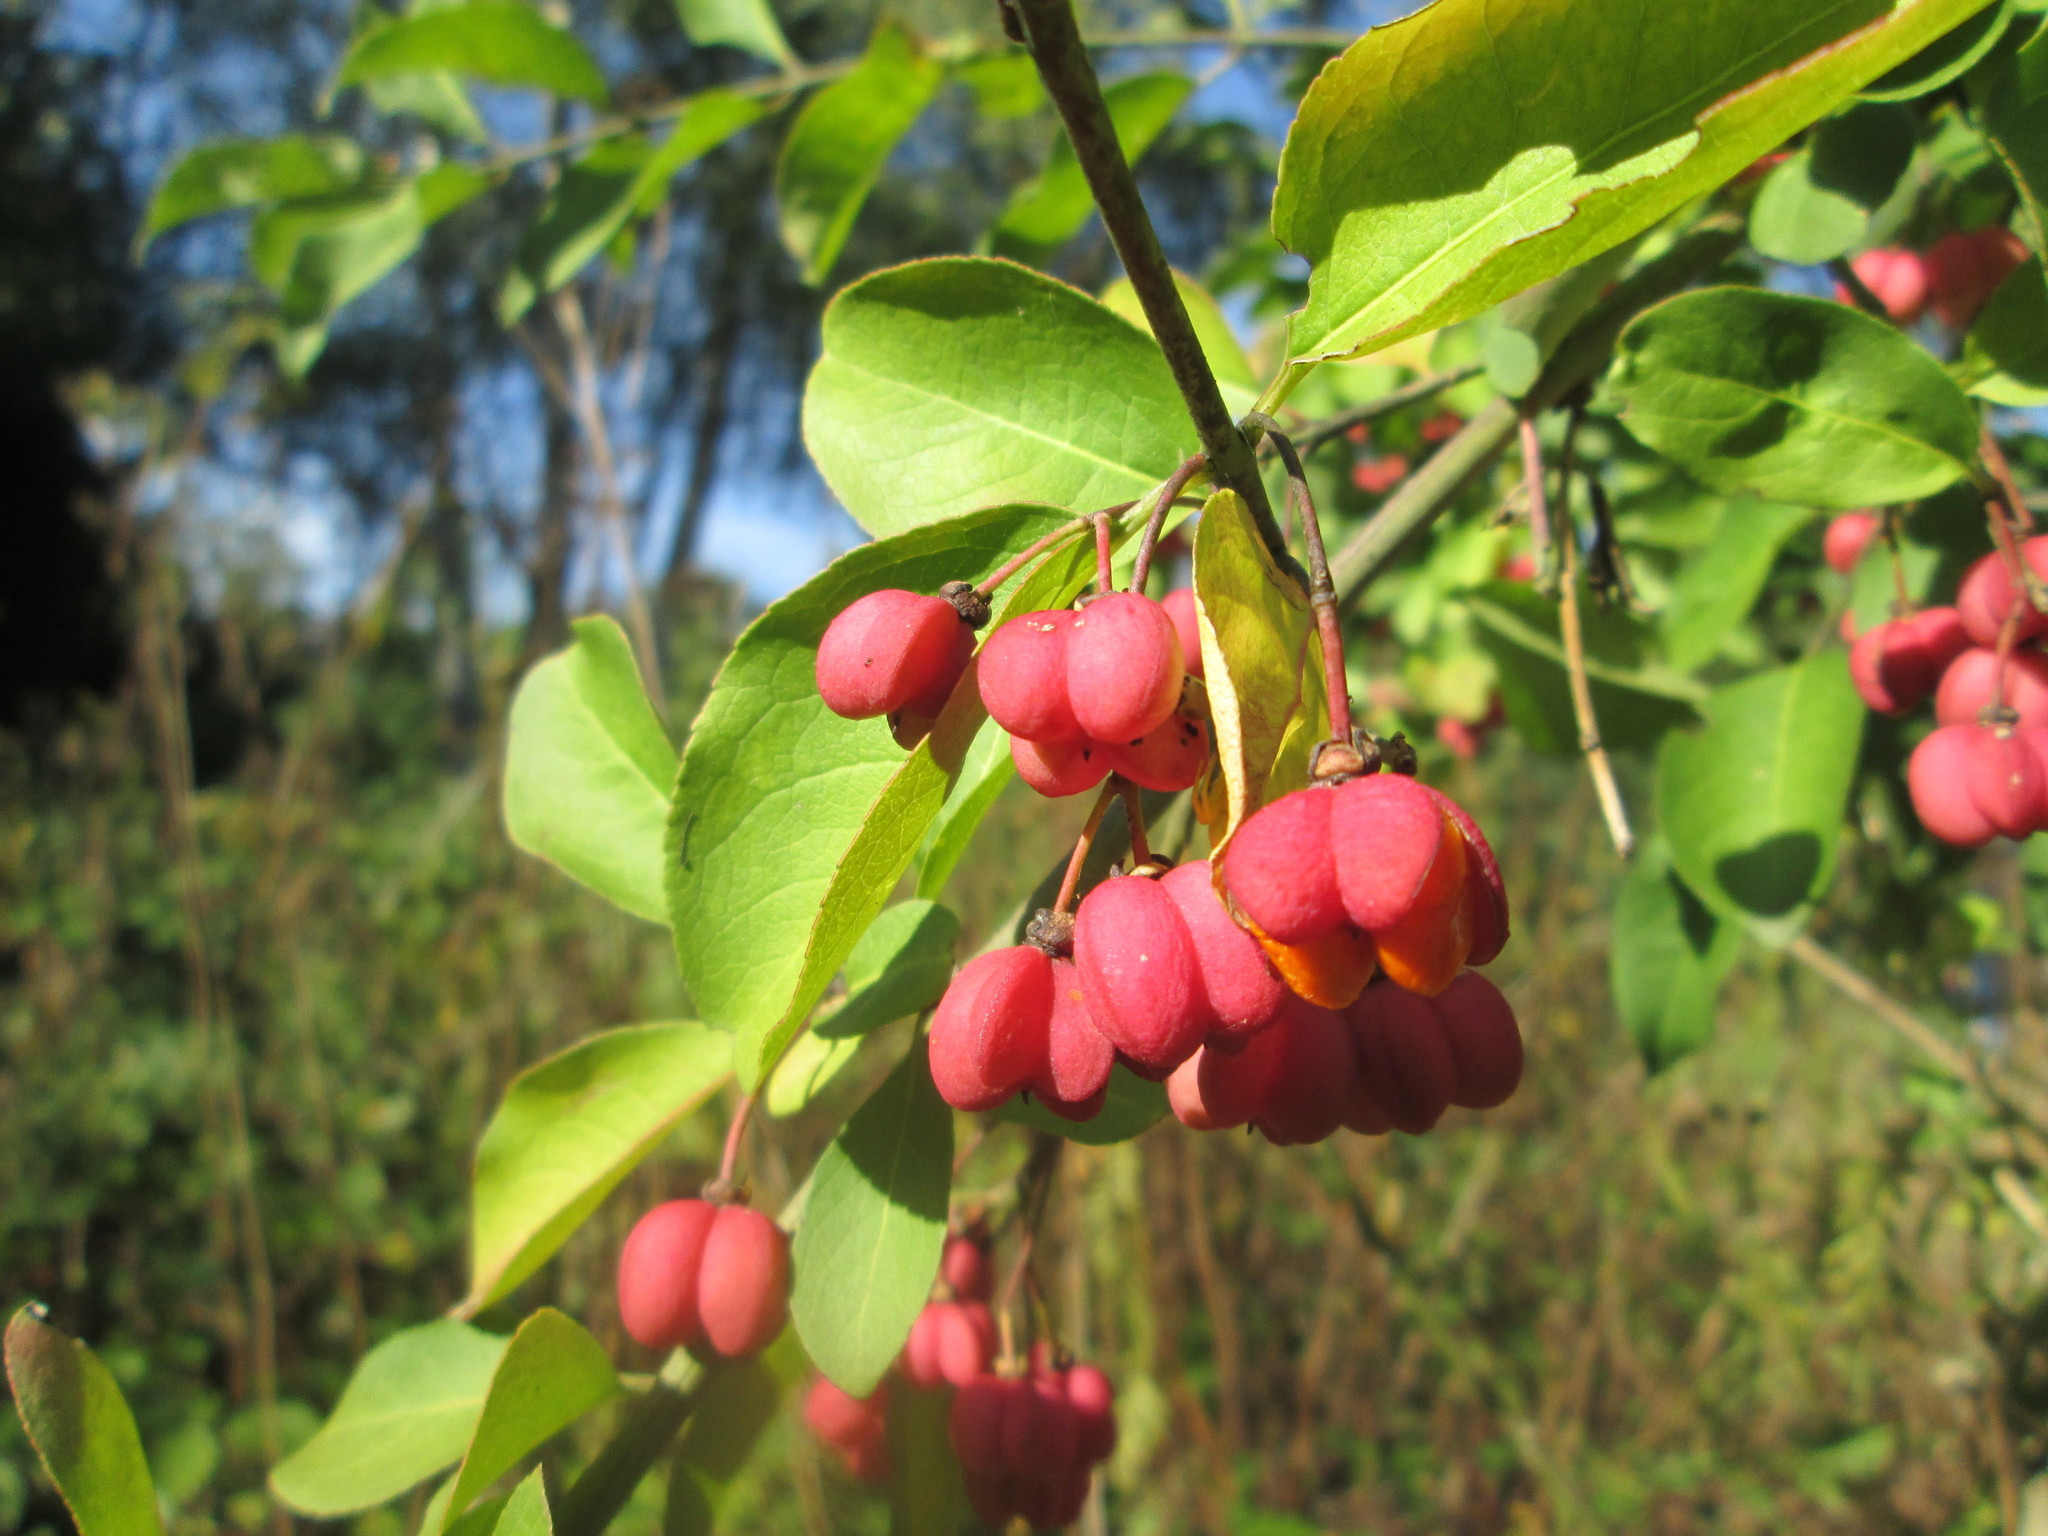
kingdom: Plantae
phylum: Tracheophyta
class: Magnoliopsida
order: Celastrales
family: Celastraceae
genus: Euonymus
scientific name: Euonymus europaeus
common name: Spindle
